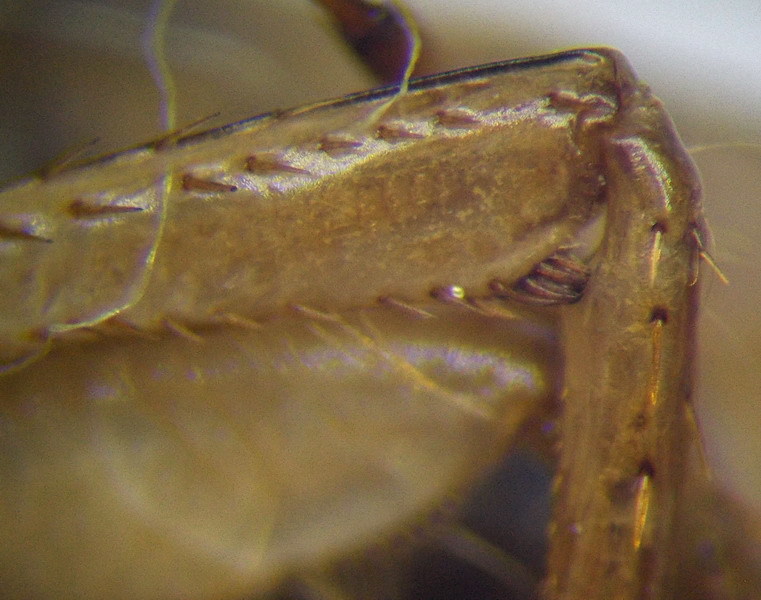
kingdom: Animalia
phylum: Arthropoda
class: Insecta
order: Hemiptera
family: Corixidae
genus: Corixa
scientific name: Corixa dentipes
